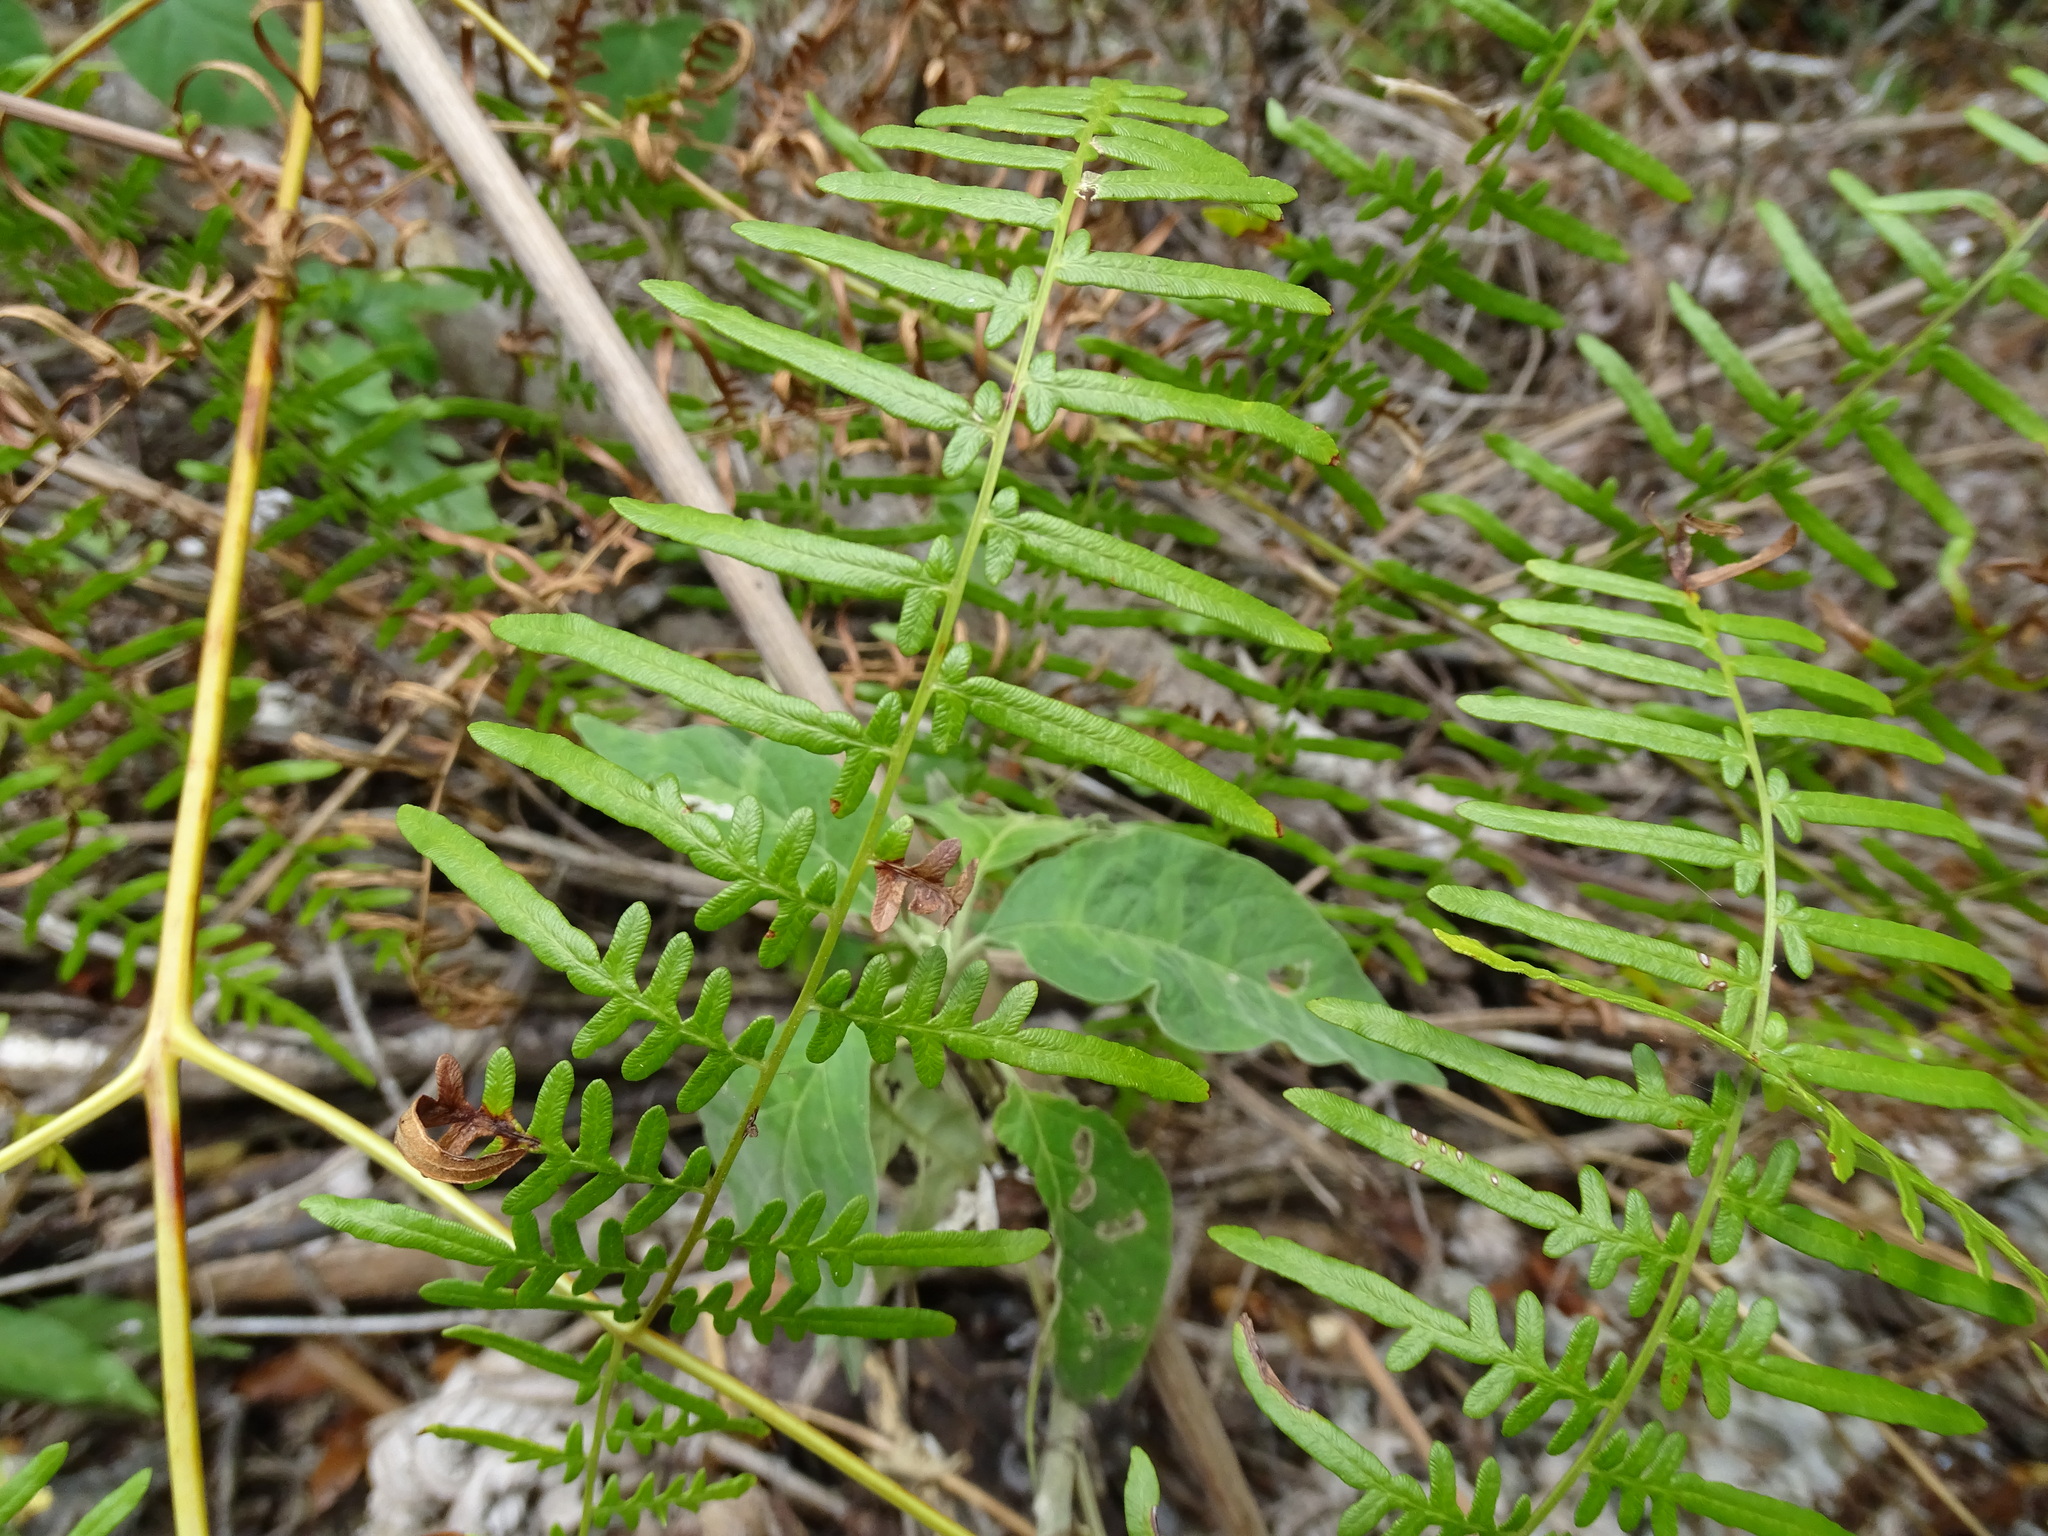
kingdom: Plantae
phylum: Tracheophyta
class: Polypodiopsida
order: Polypodiales
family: Dennstaedtiaceae
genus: Pteridium
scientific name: Pteridium caudatum
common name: Southern bracken fern
